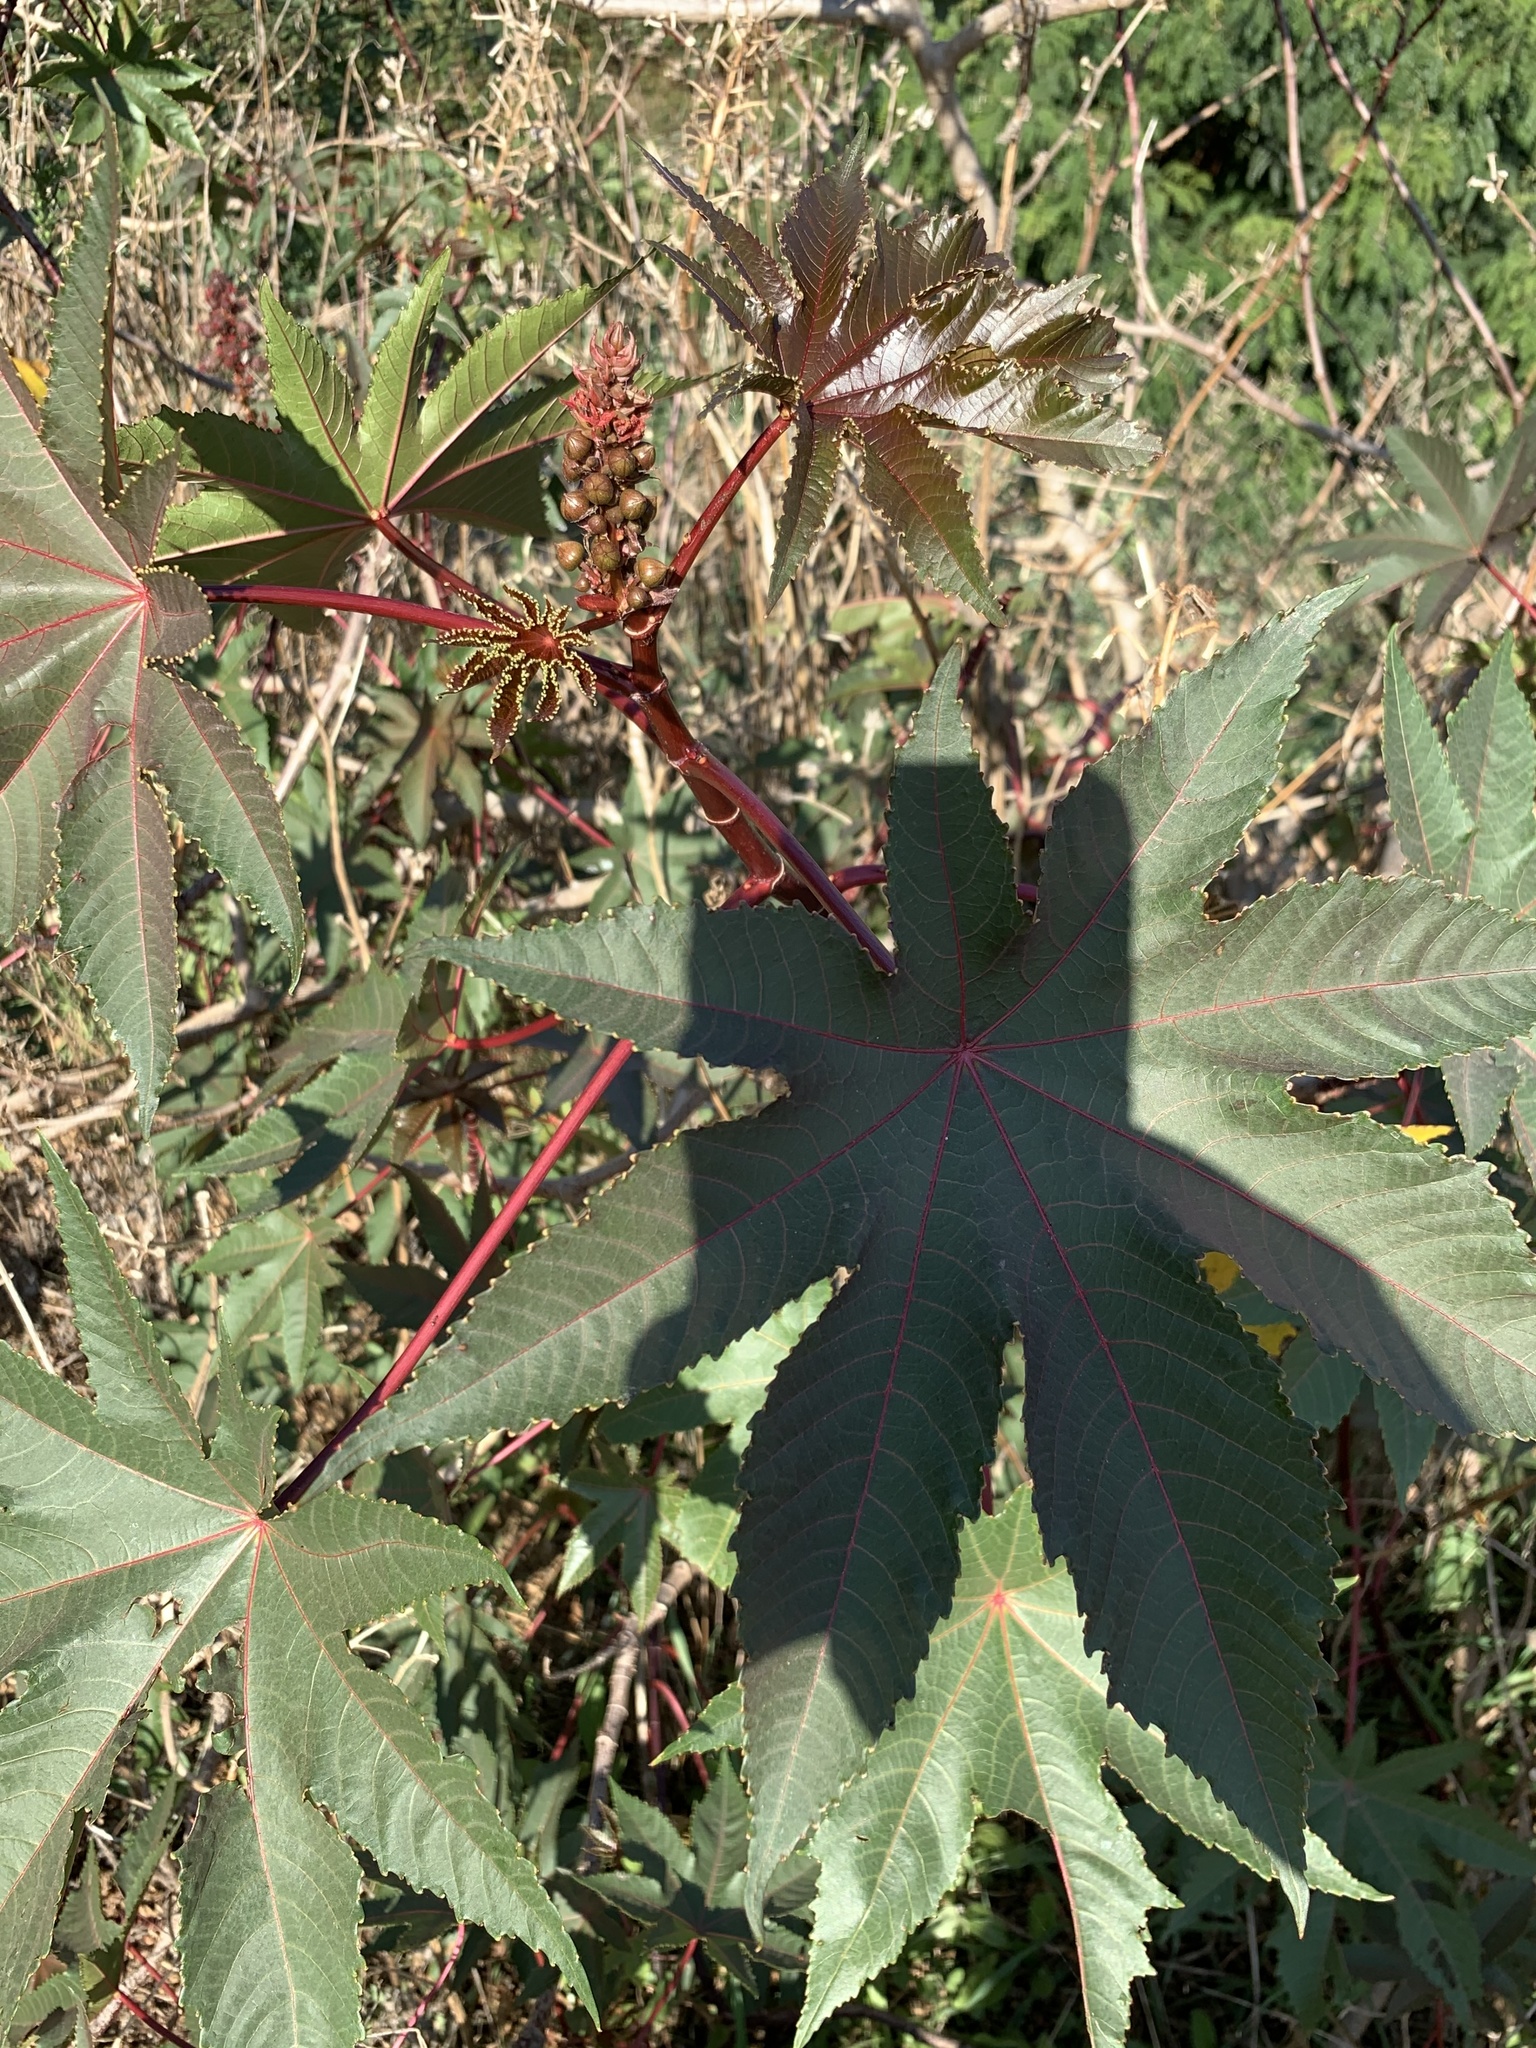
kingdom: Plantae
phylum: Tracheophyta
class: Magnoliopsida
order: Malpighiales
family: Euphorbiaceae
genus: Ricinus
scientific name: Ricinus communis
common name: Castor-oil-plant
